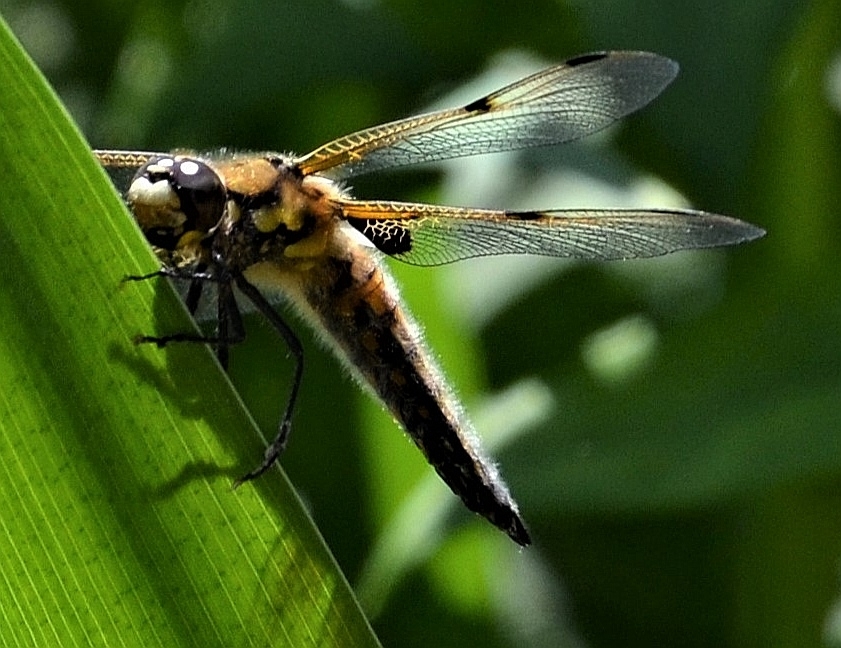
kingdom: Animalia
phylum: Arthropoda
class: Insecta
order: Odonata
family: Libellulidae
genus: Libellula
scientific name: Libellula quadrimaculata
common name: Four-spotted chaser
